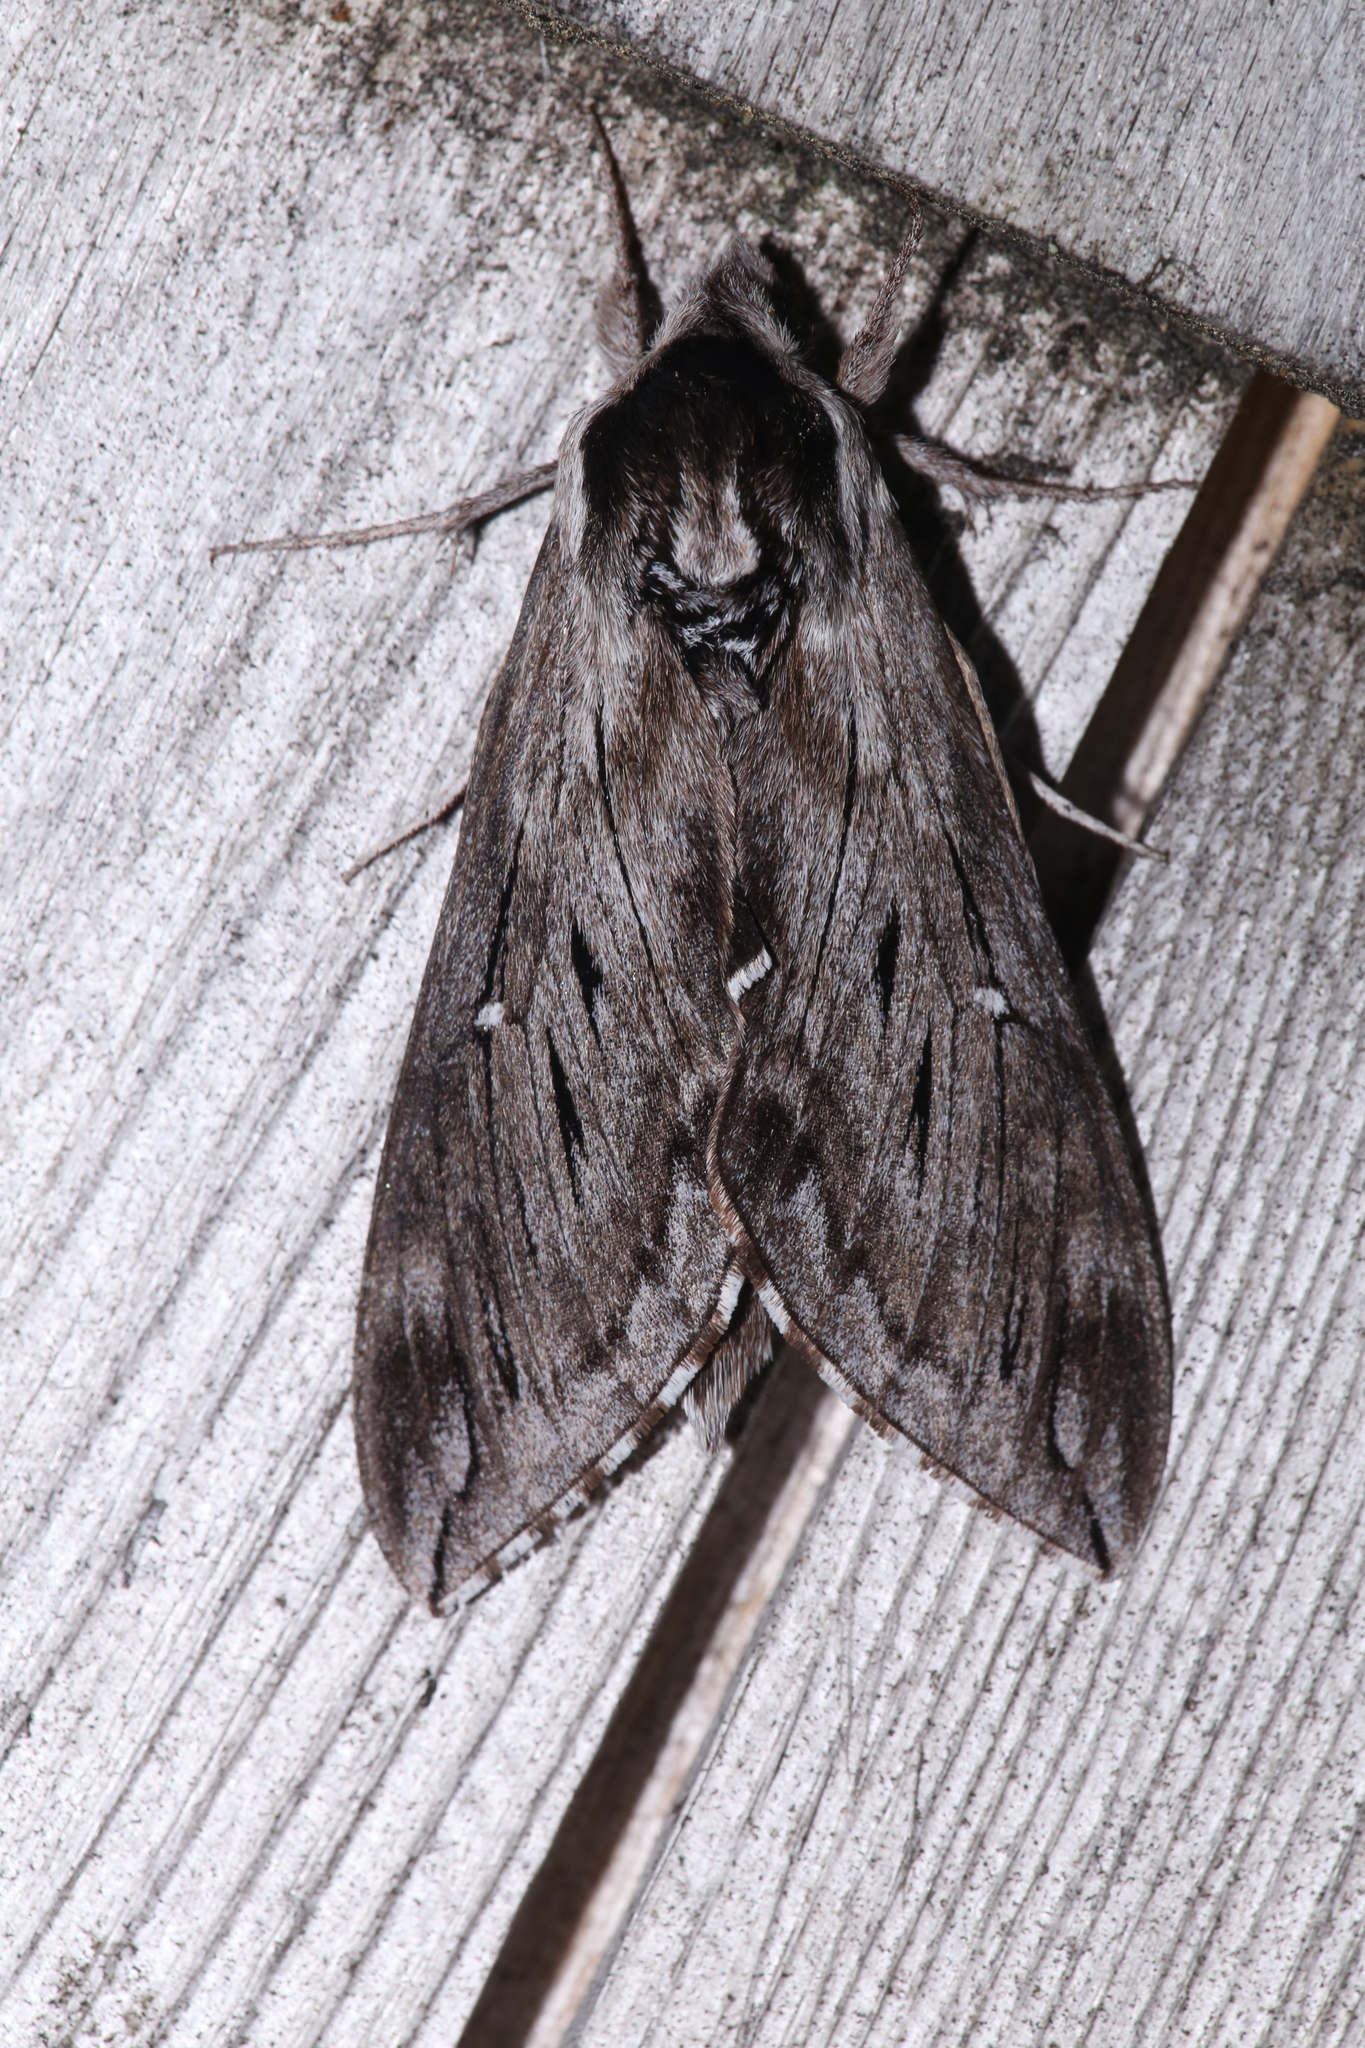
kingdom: Animalia
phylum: Arthropoda
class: Insecta
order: Lepidoptera
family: Sphingidae
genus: Sphinx
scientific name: Sphinx poecila
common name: Northern apple sphinx
